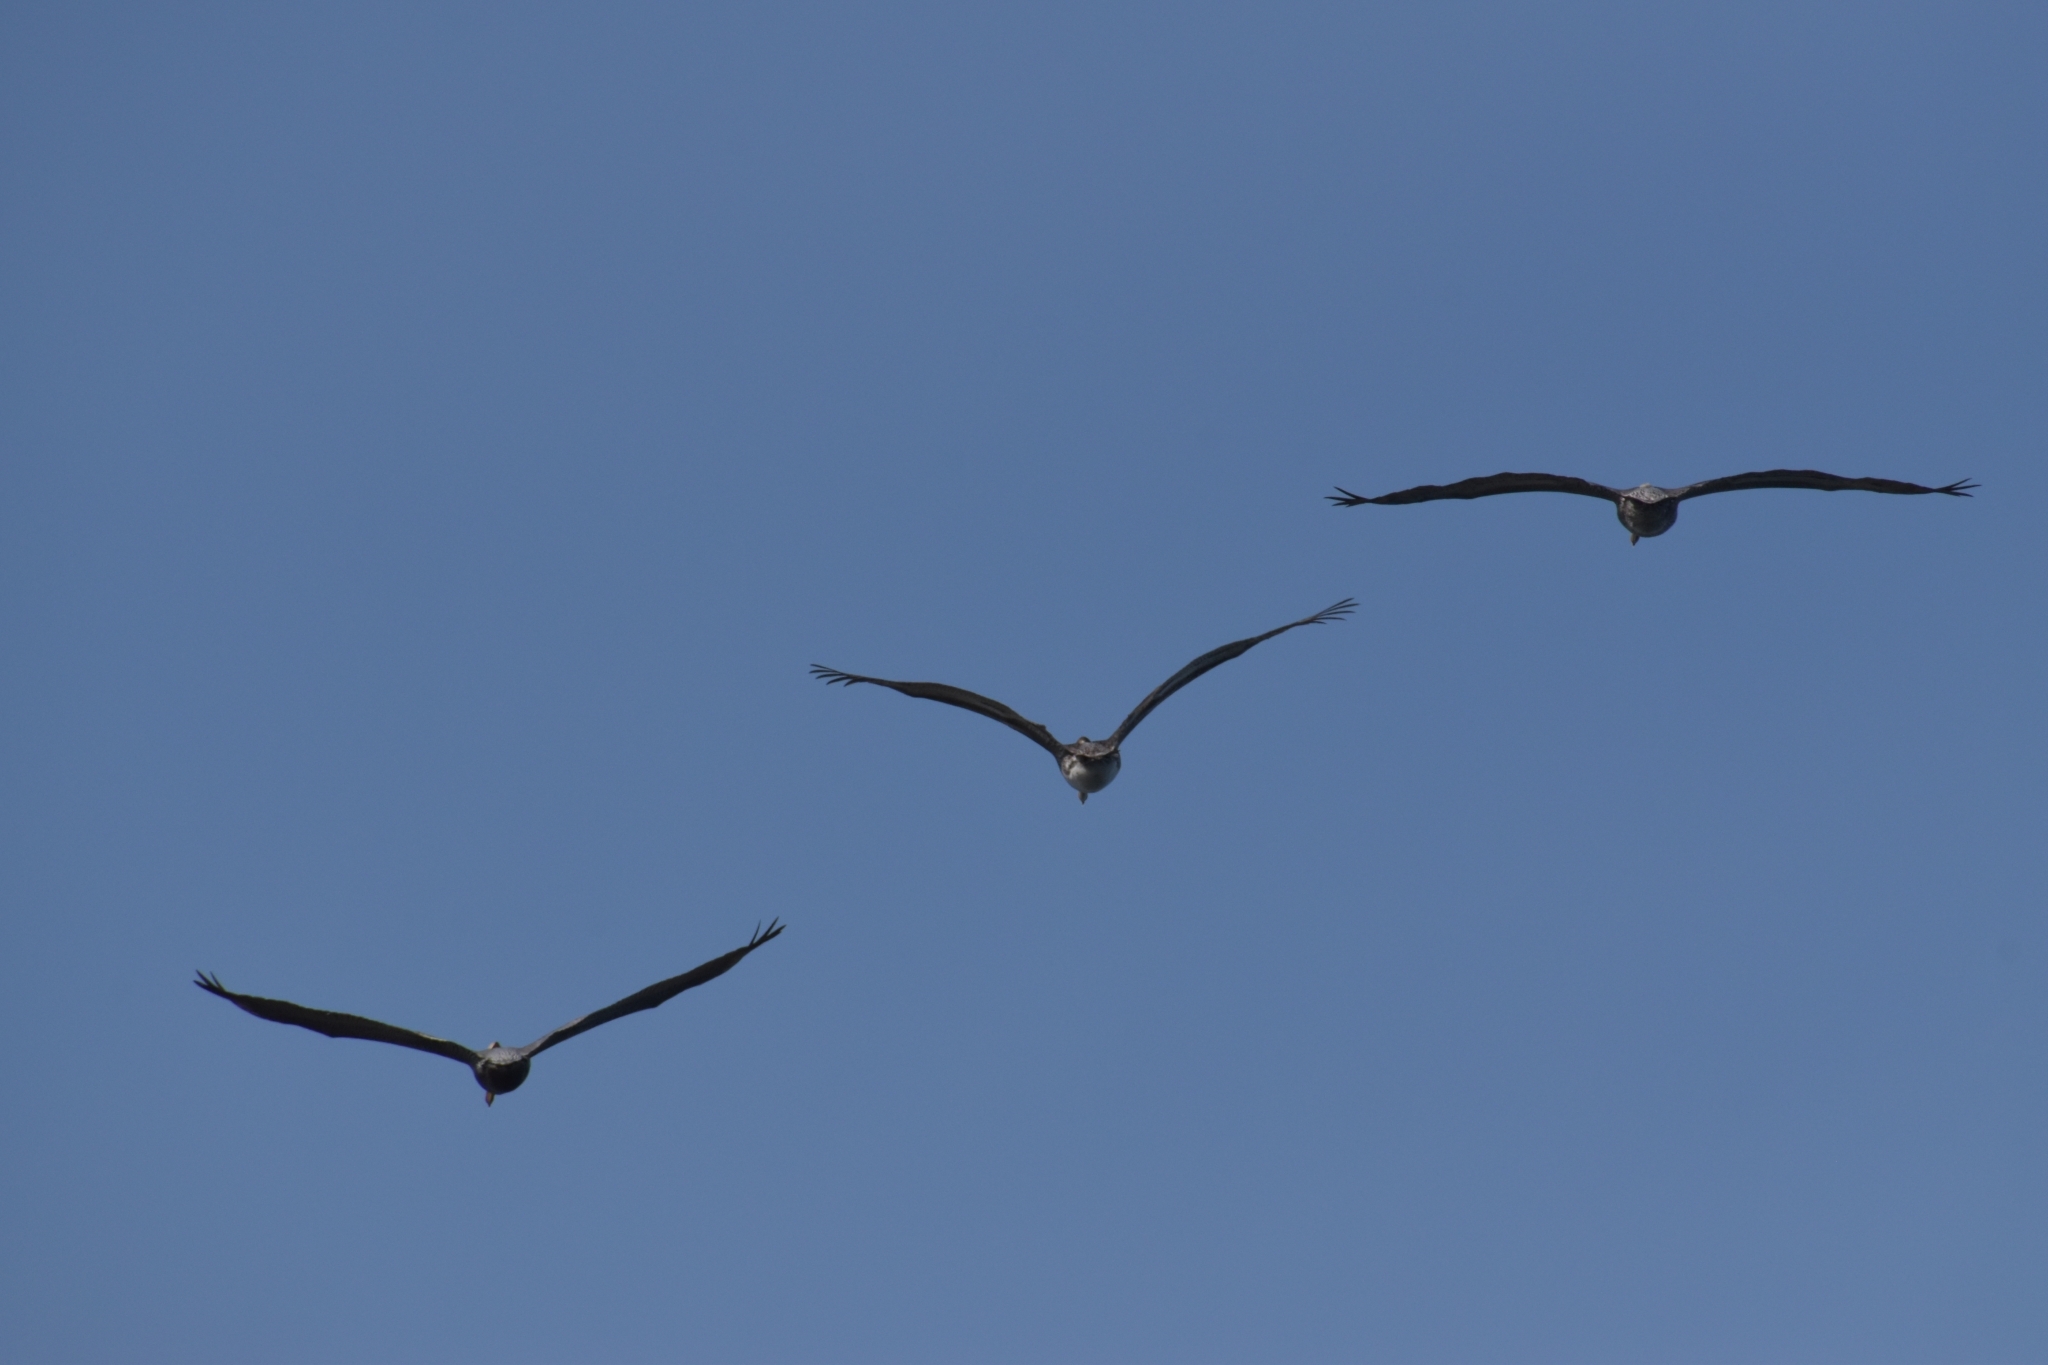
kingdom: Animalia
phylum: Chordata
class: Aves
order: Pelecaniformes
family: Pelecanidae
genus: Pelecanus
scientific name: Pelecanus occidentalis
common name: Brown pelican
